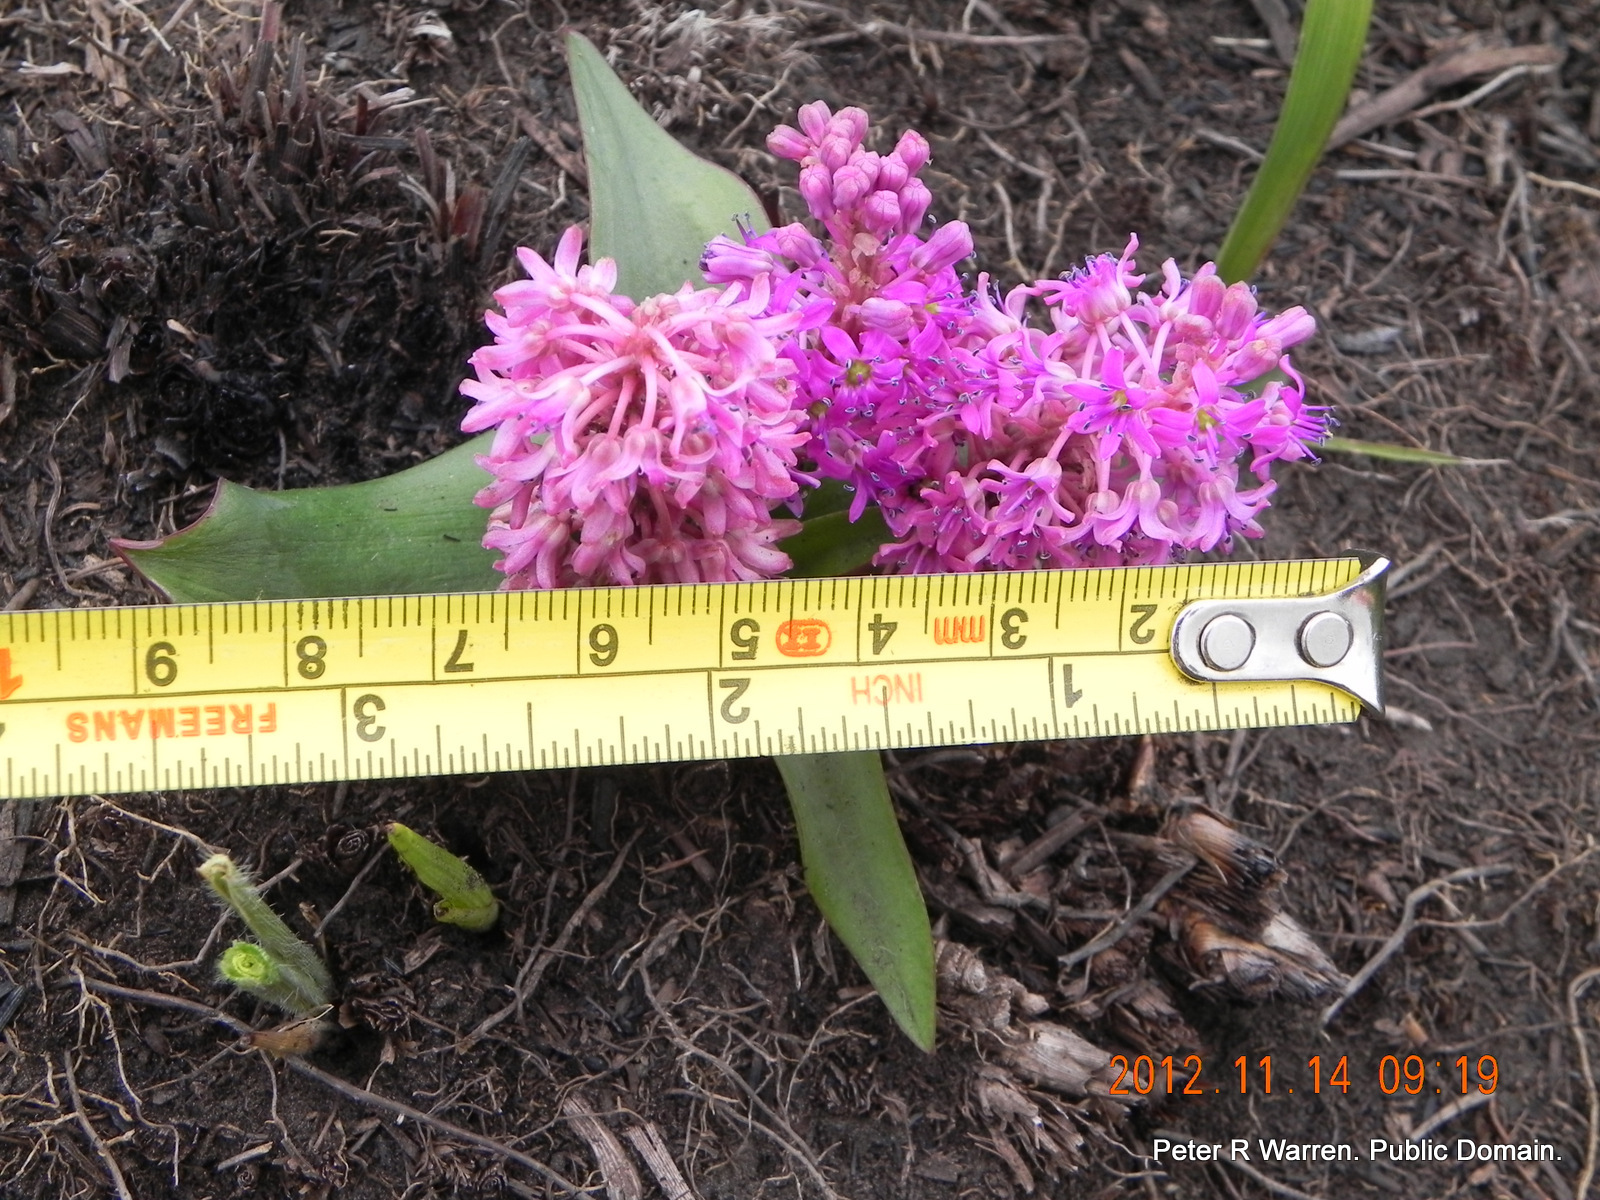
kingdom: Plantae
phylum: Tracheophyta
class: Liliopsida
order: Asparagales
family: Asparagaceae
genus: Ledebouria
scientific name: Ledebouria sandersonii
